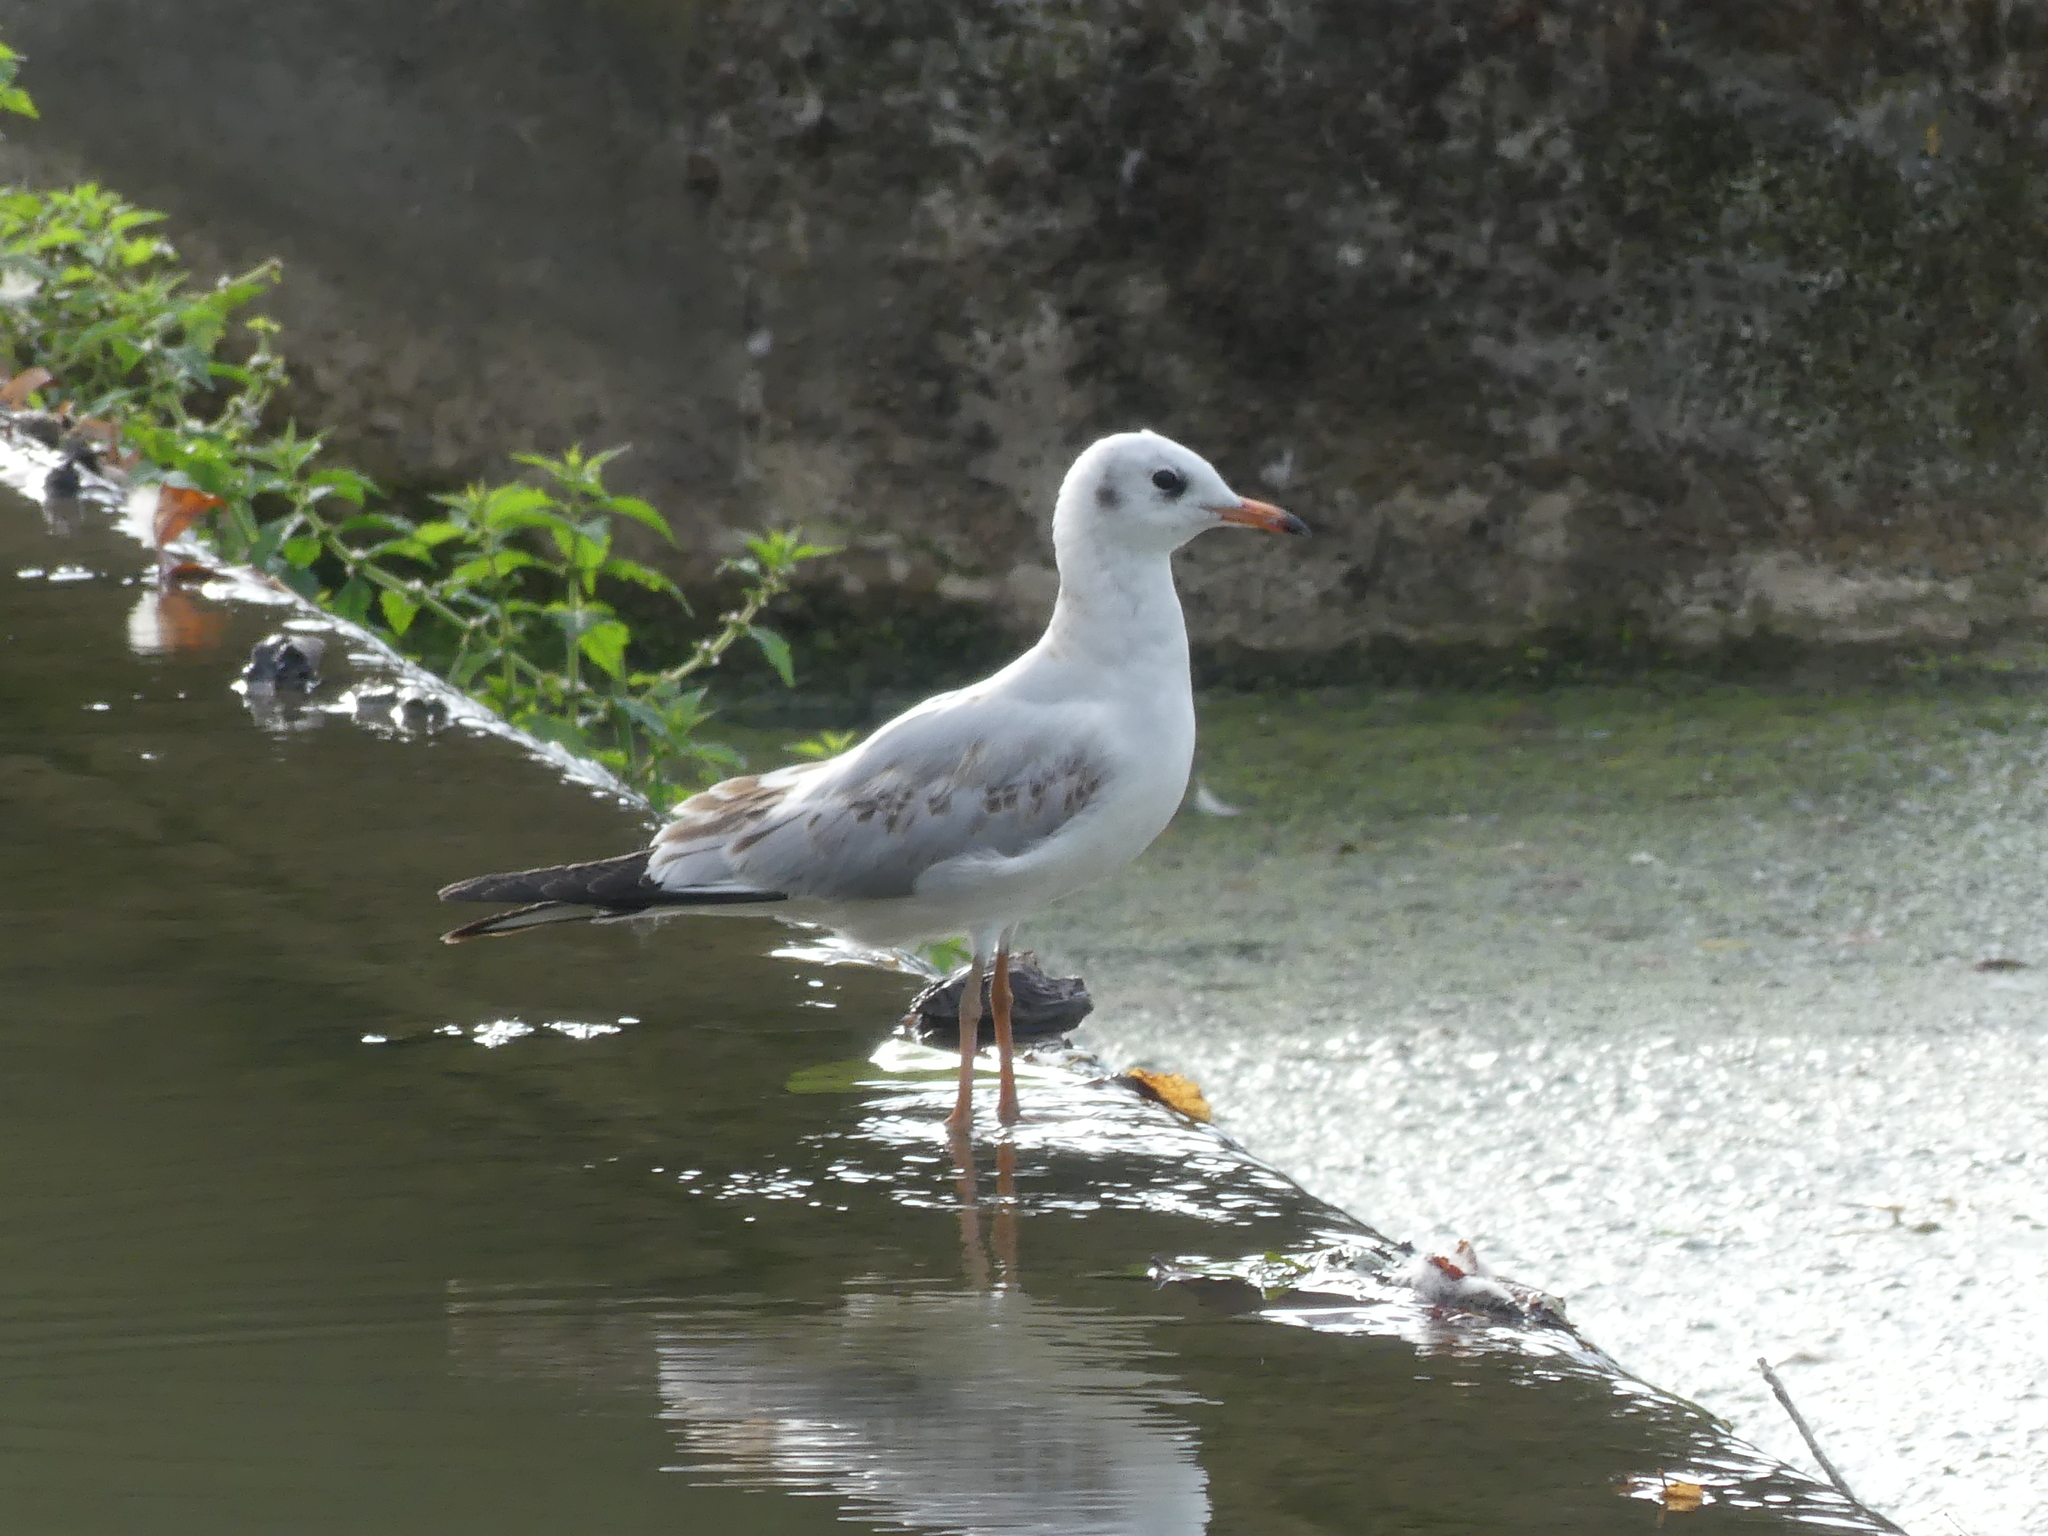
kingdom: Animalia
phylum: Chordata
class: Aves
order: Charadriiformes
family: Laridae
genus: Chroicocephalus
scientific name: Chroicocephalus ridibundus
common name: Black-headed gull
